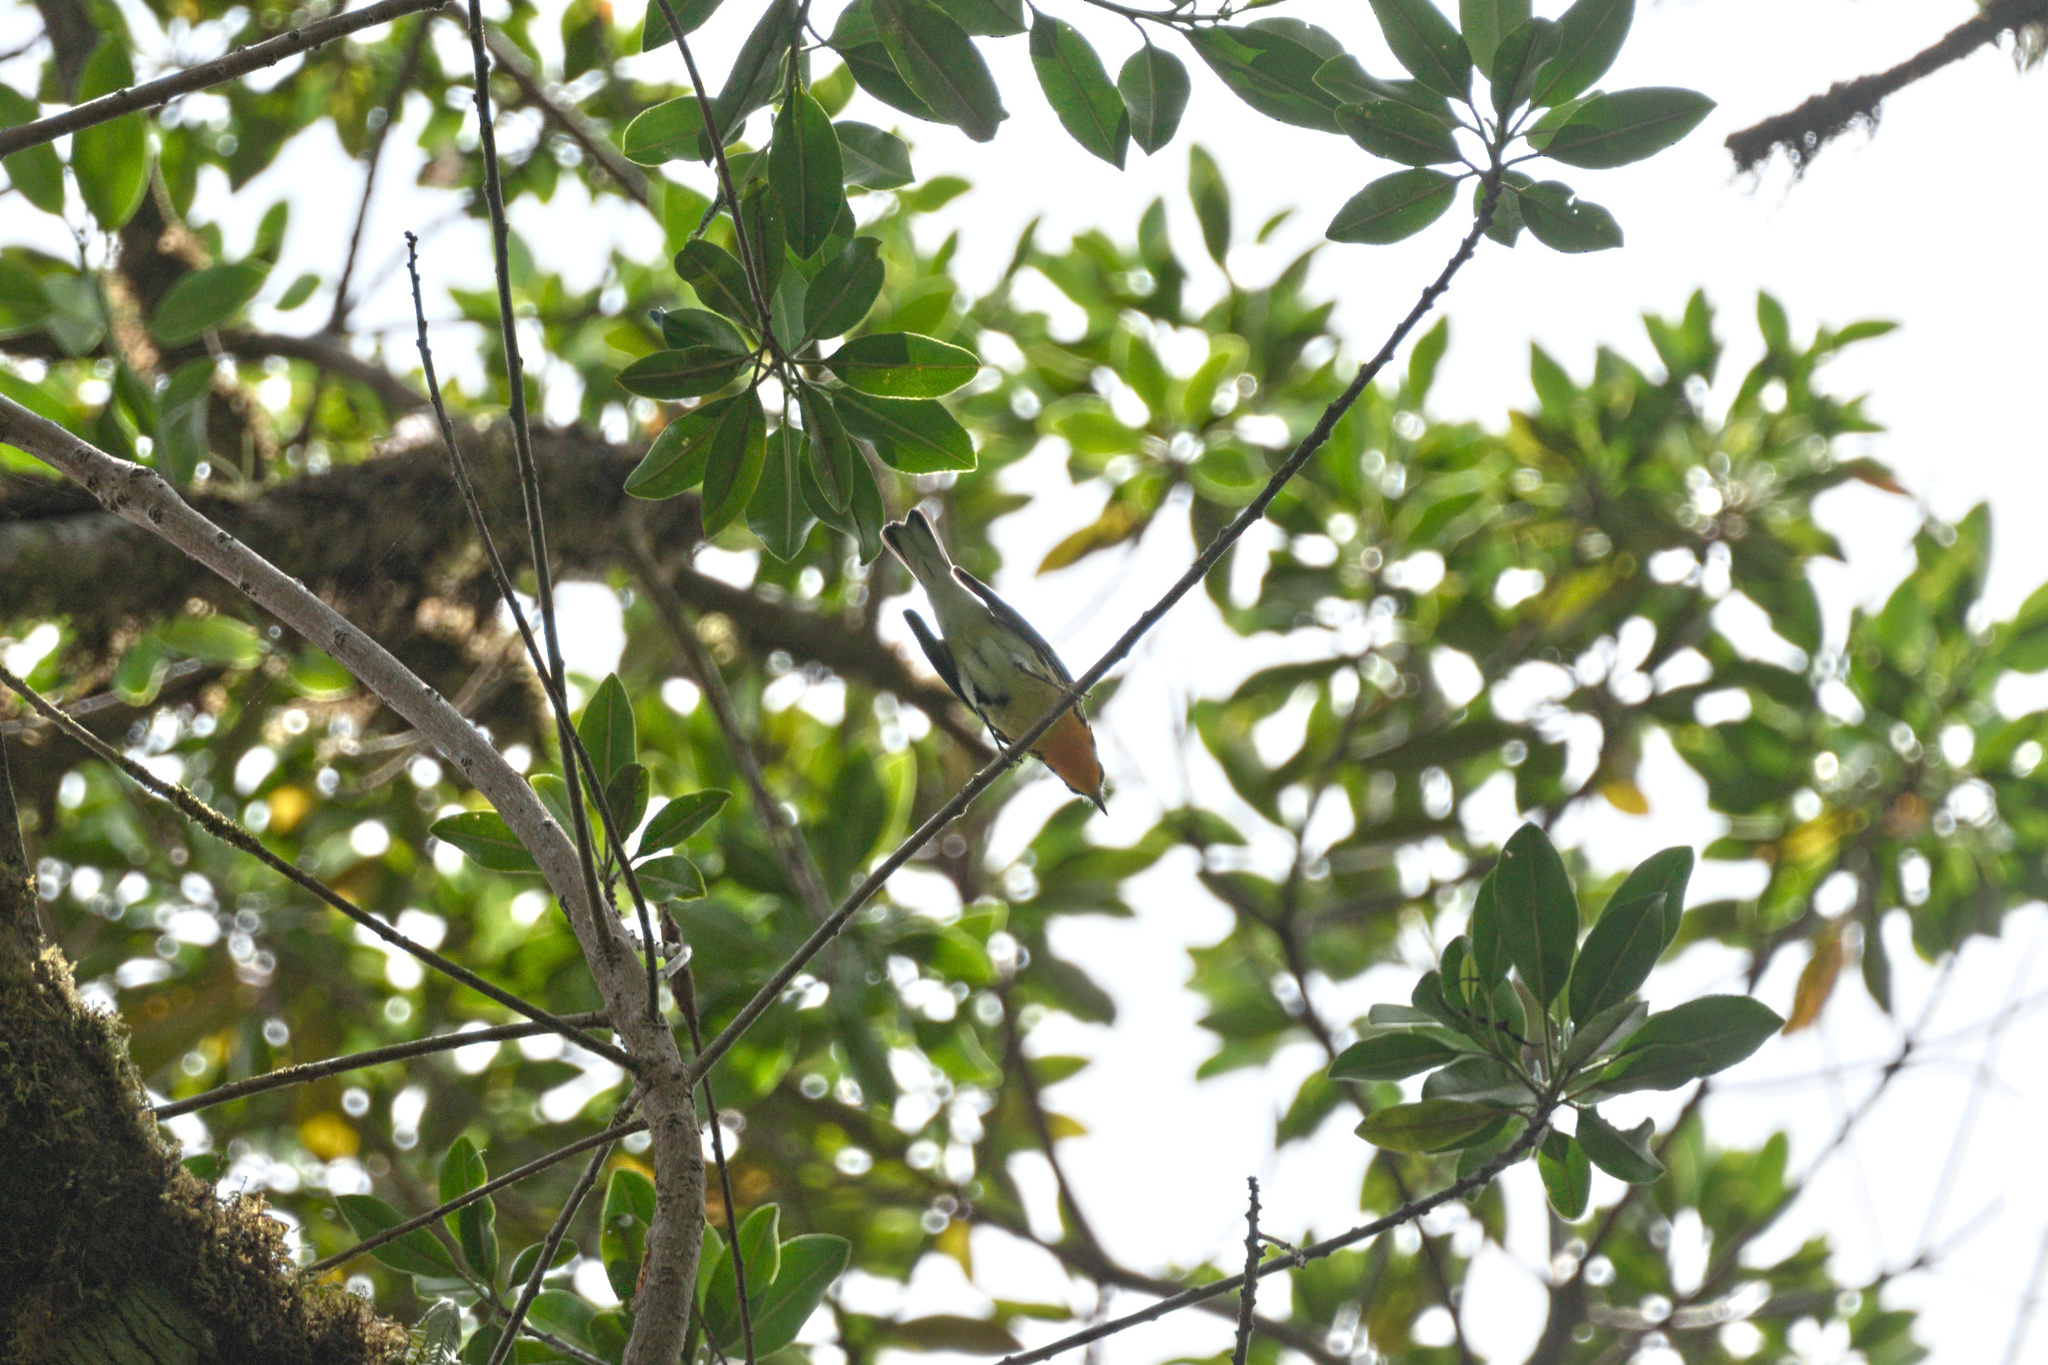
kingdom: Animalia
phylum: Chordata
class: Aves
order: Passeriformes
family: Parulidae
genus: Setophaga
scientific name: Setophaga fusca
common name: Blackburnian warbler
